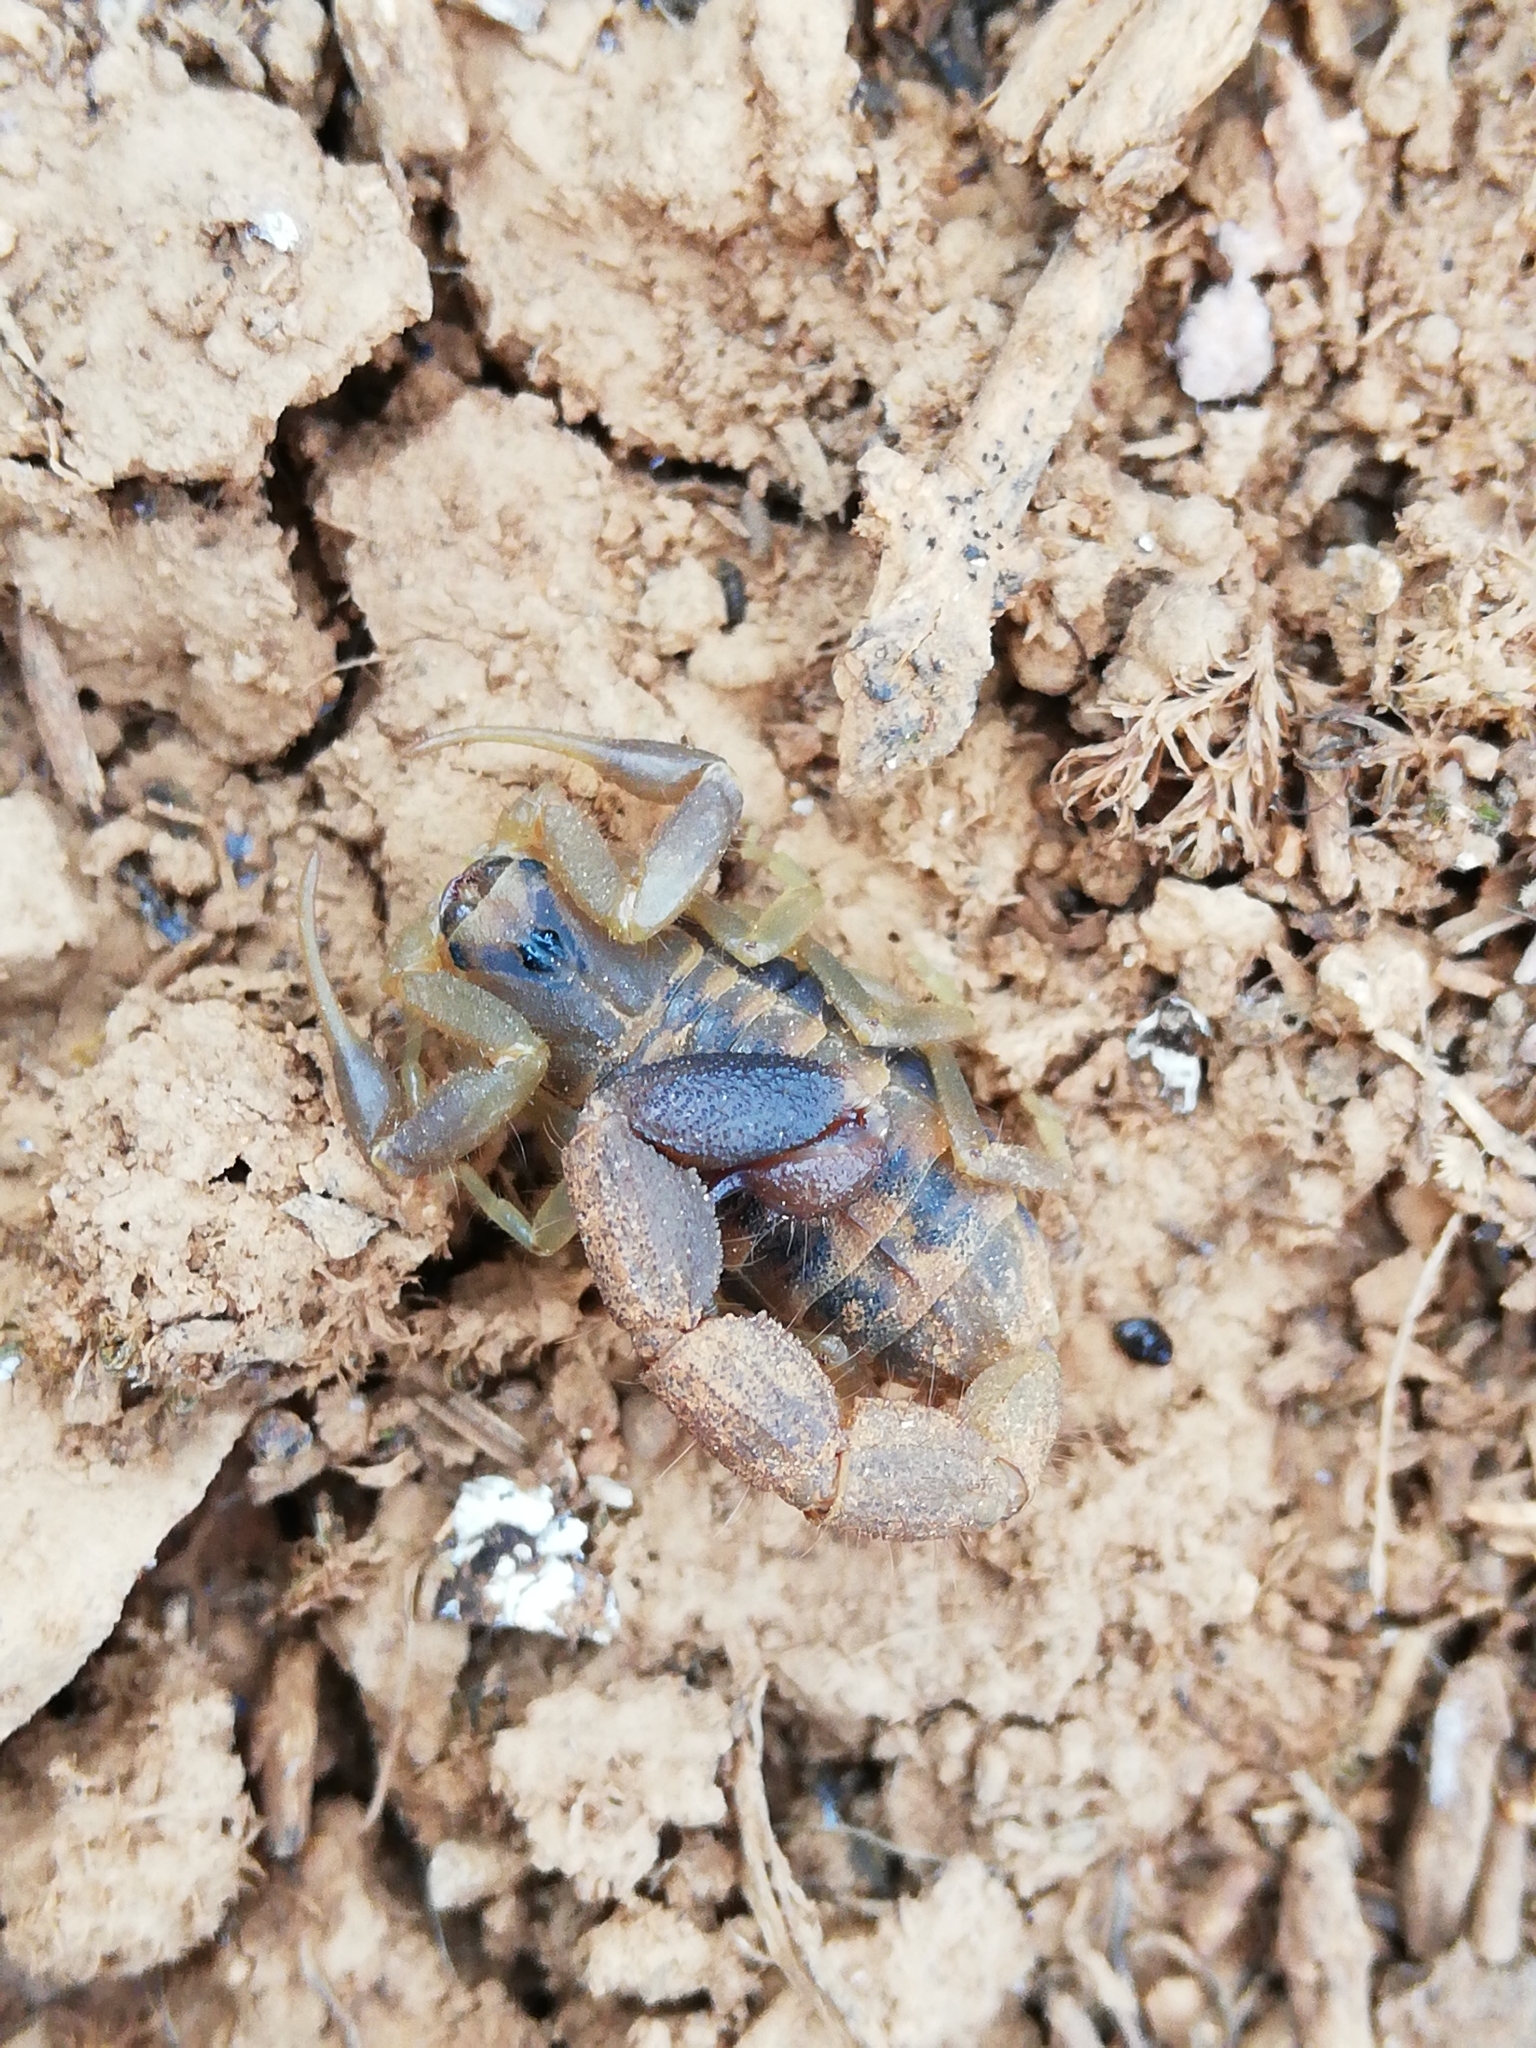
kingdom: Animalia
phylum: Arthropoda
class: Arachnida
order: Scorpiones
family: Buthidae
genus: Uroplectes
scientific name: Uroplectes triangulifer
